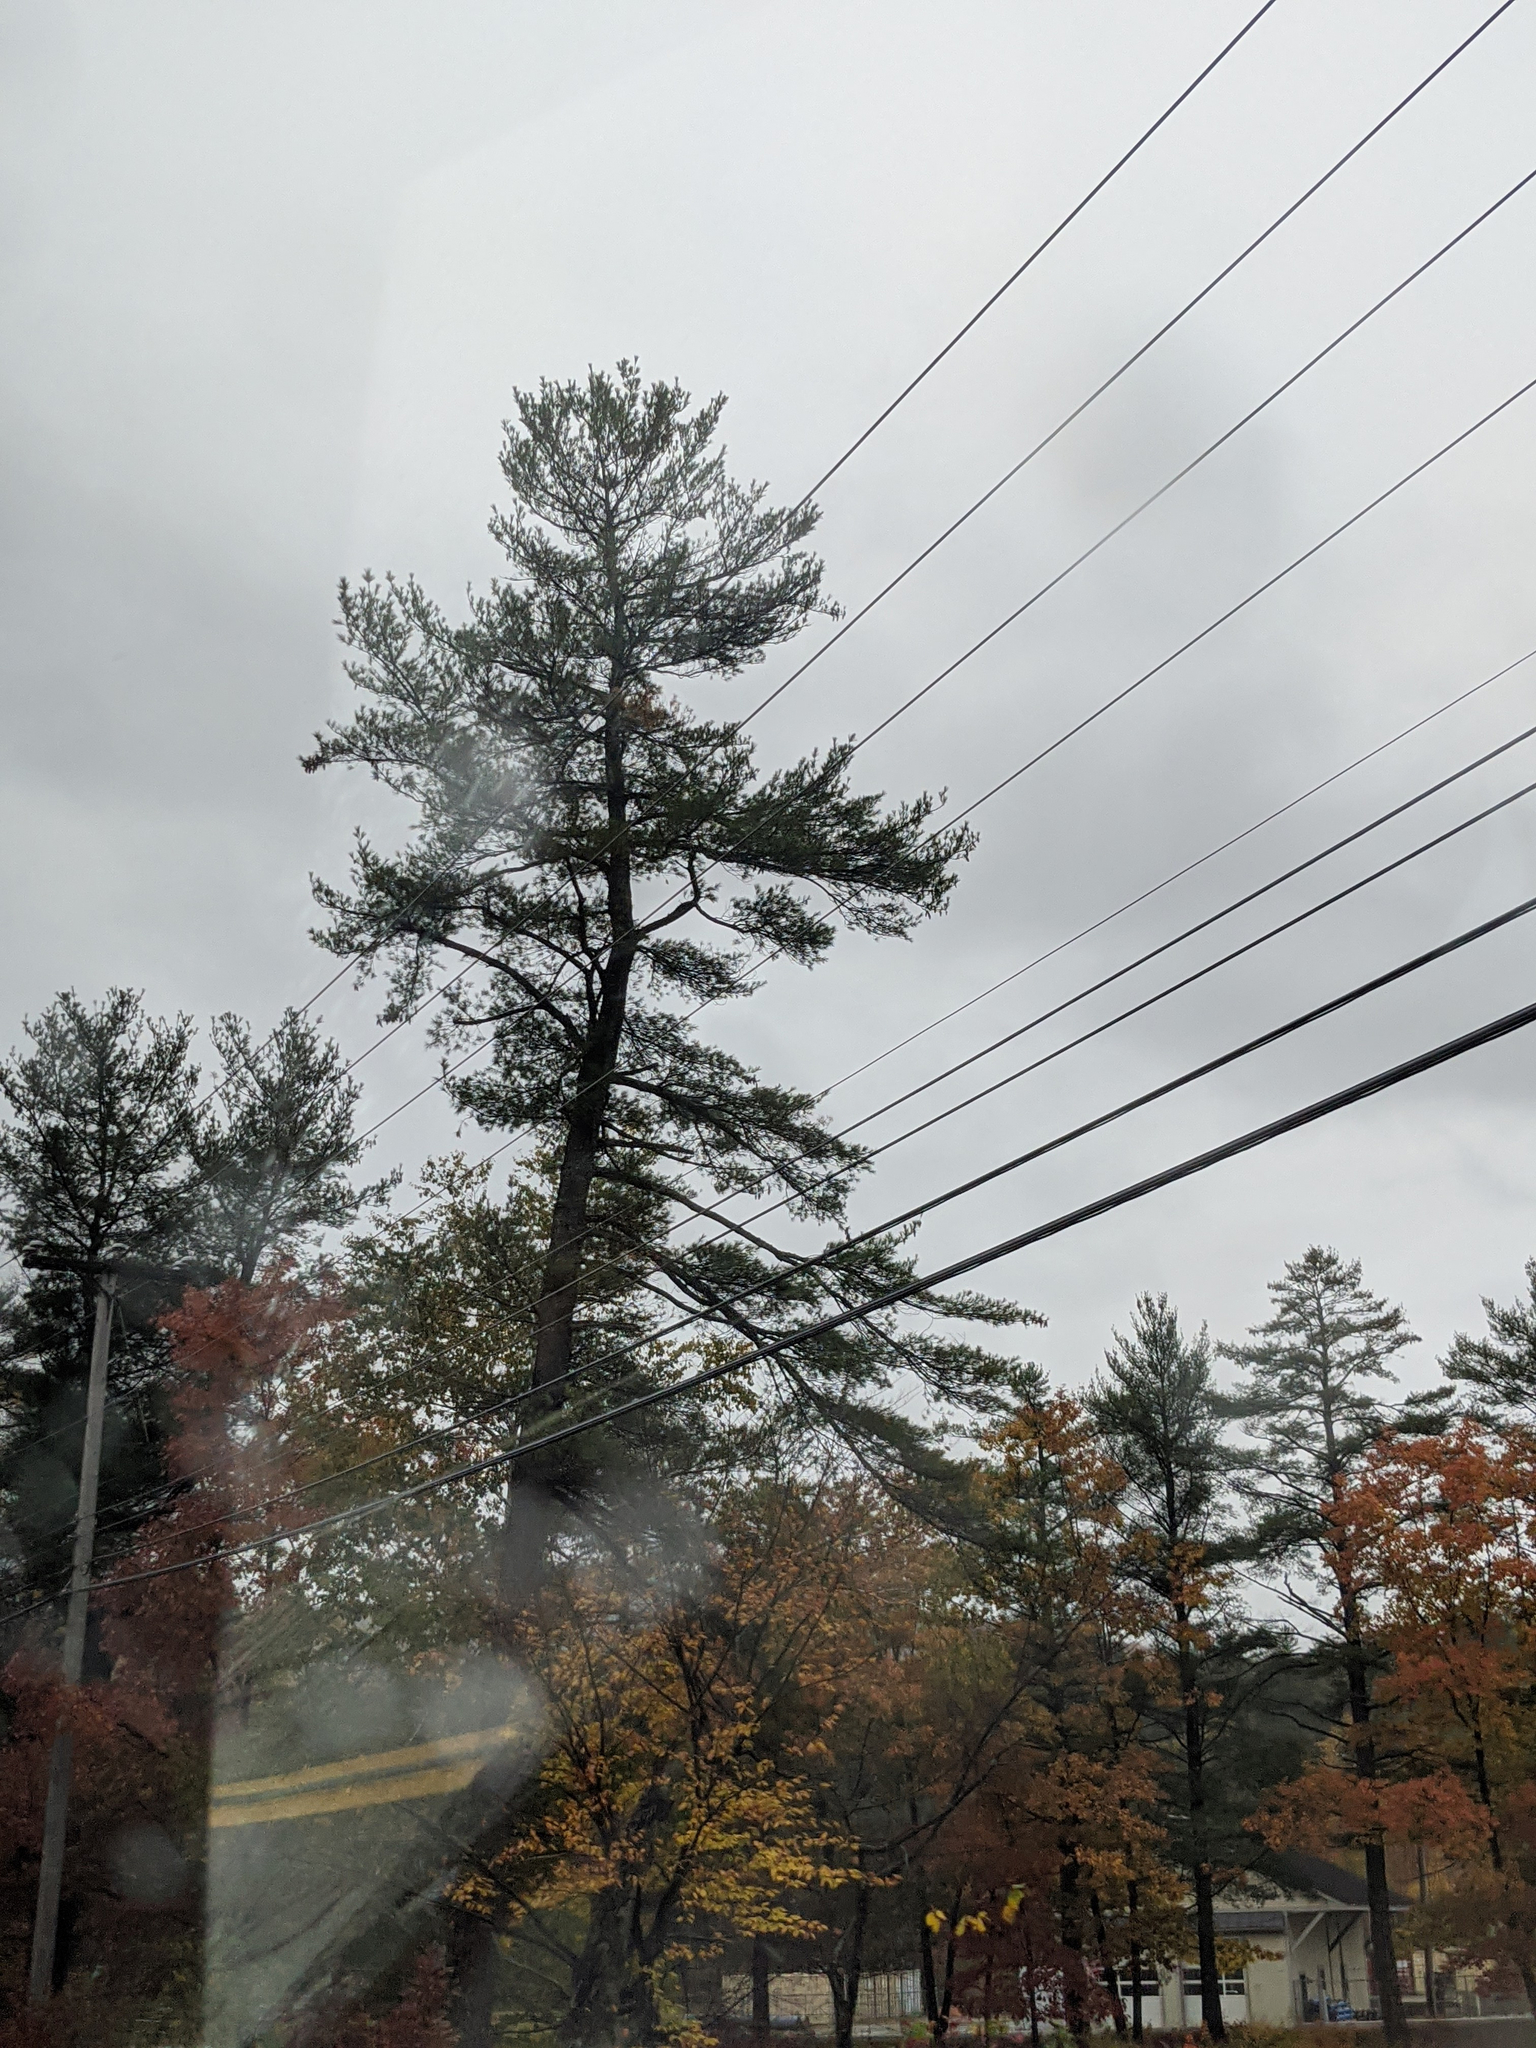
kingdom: Plantae
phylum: Tracheophyta
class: Pinopsida
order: Pinales
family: Pinaceae
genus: Pinus
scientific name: Pinus strobus
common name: Weymouth pine
